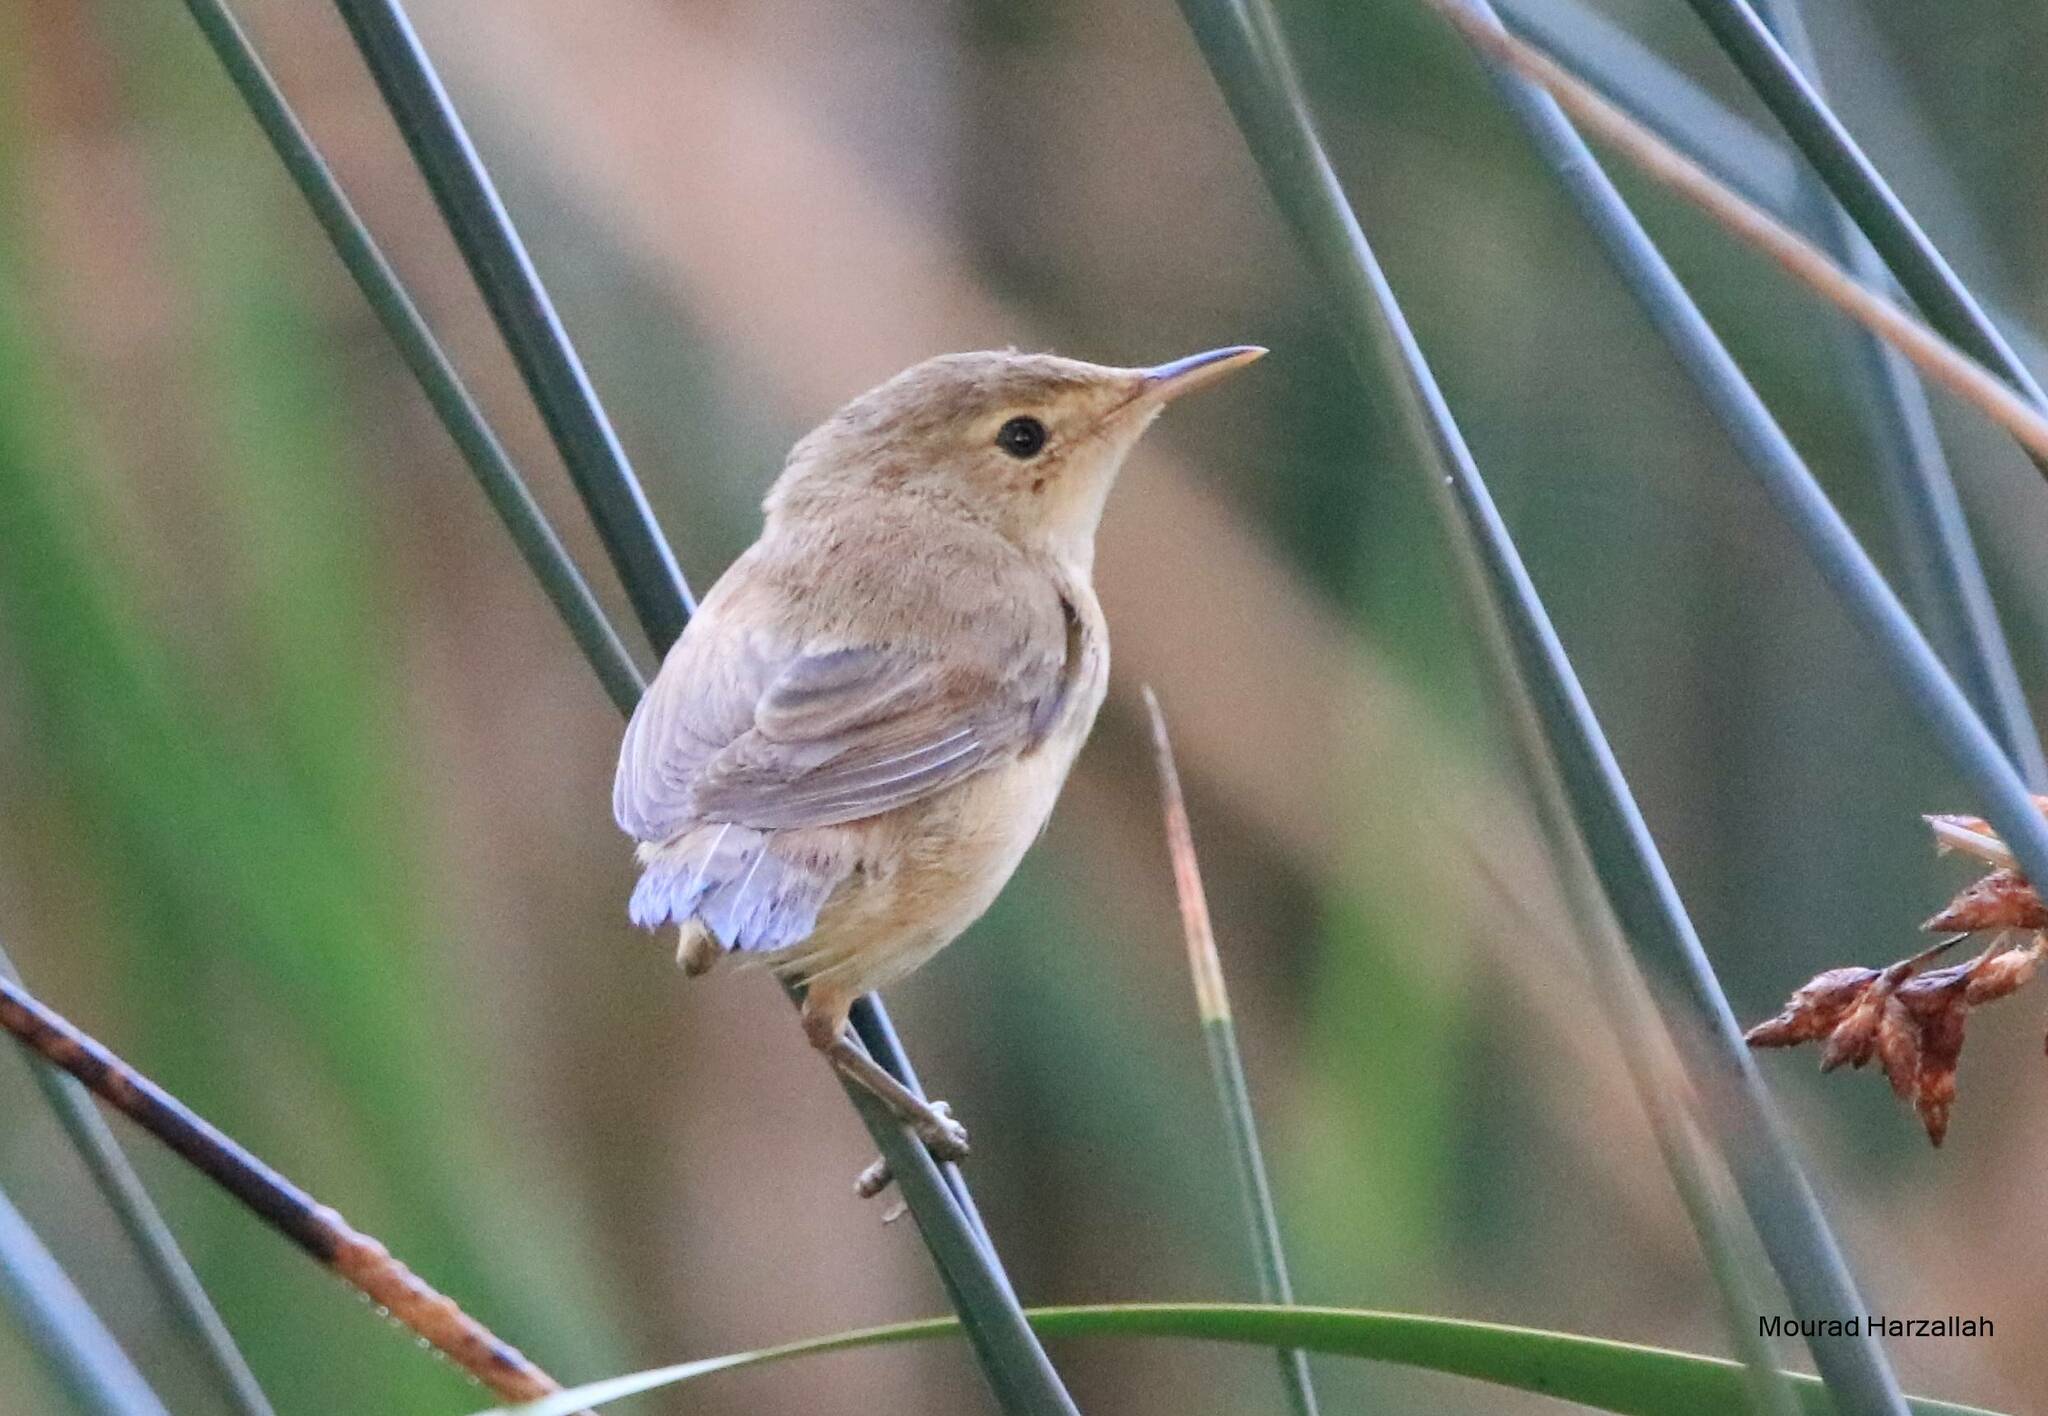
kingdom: Animalia
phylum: Chordata
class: Aves
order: Passeriformes
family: Acrocephalidae
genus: Acrocephalus
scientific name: Acrocephalus scirpaceus
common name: Eurasian reed warbler
